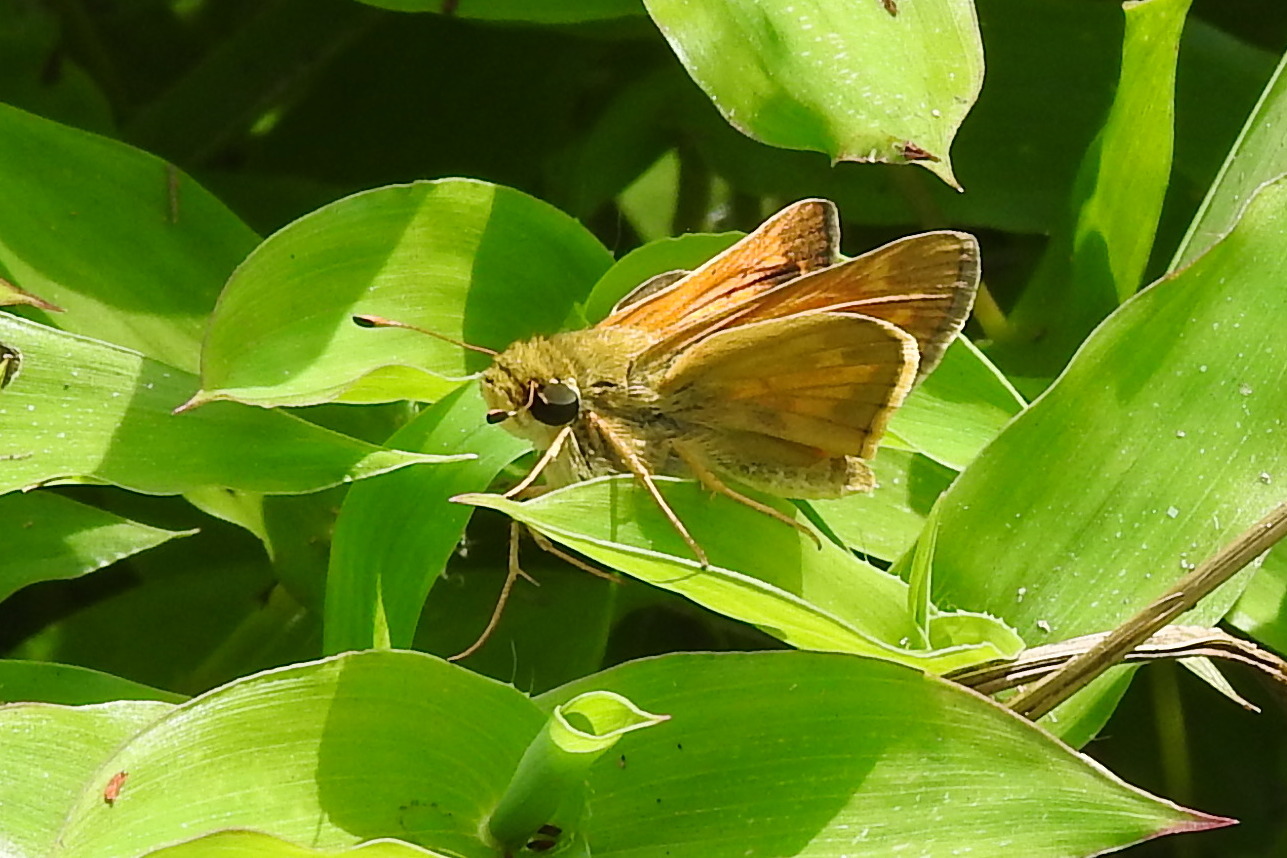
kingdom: Animalia
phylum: Arthropoda
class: Insecta
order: Lepidoptera
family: Hesperiidae
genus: Atalopedes
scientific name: Atalopedes
